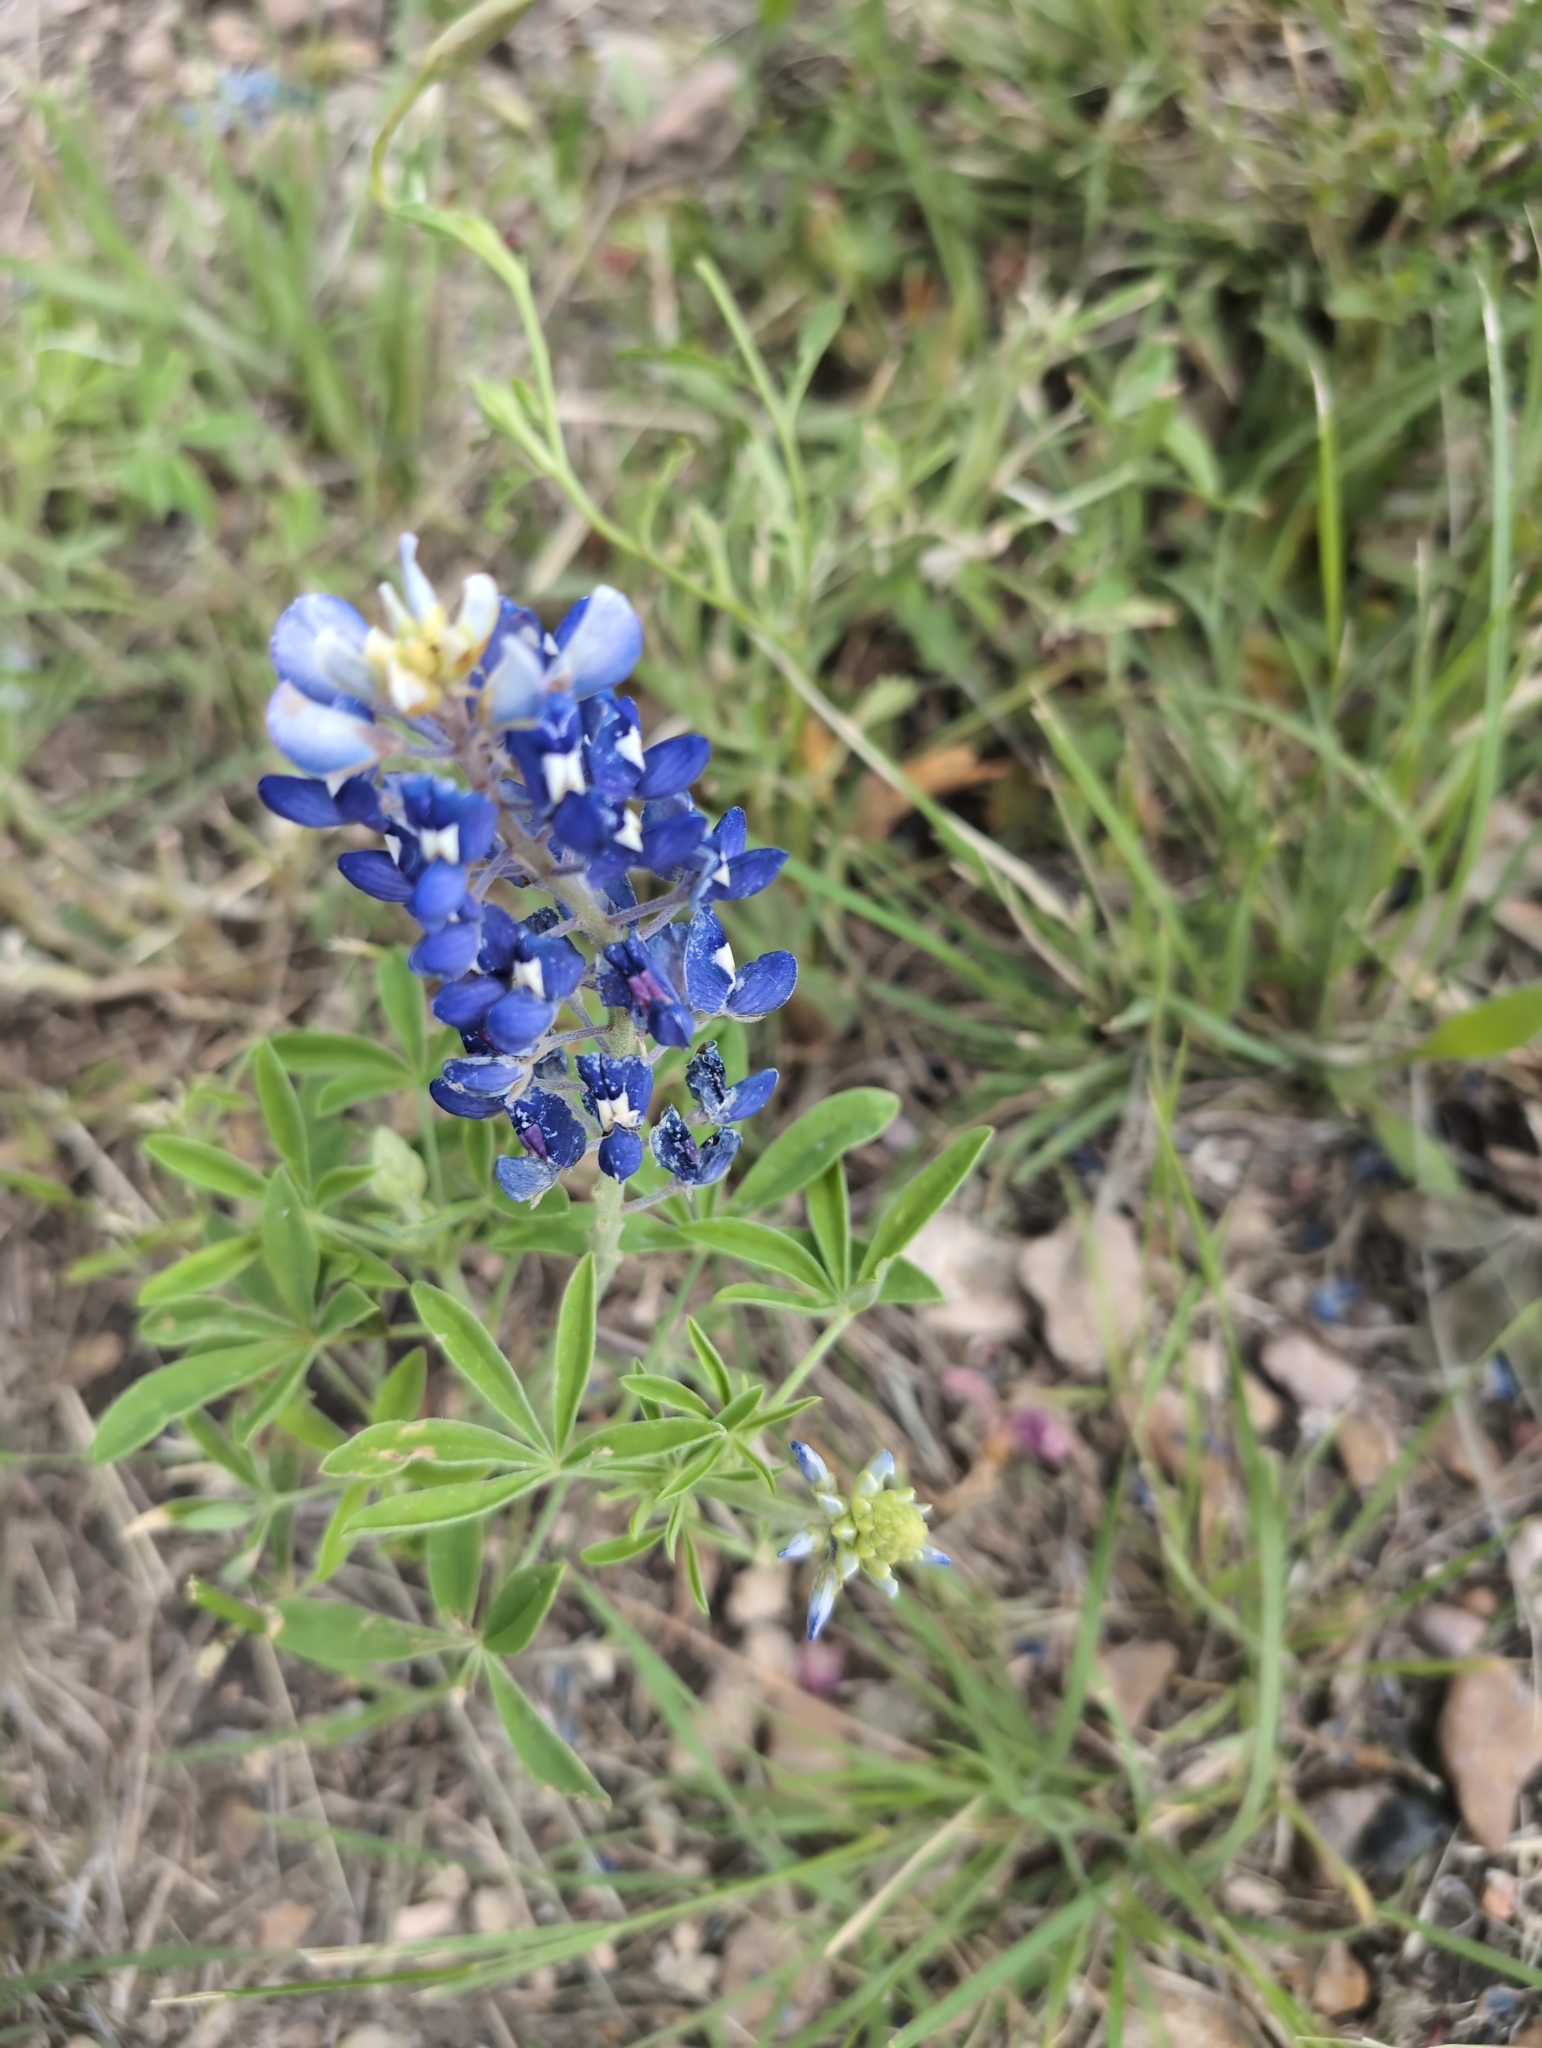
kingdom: Plantae
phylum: Tracheophyta
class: Magnoliopsida
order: Fabales
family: Fabaceae
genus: Lupinus
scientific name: Lupinus texensis
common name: Texas bluebonnet
